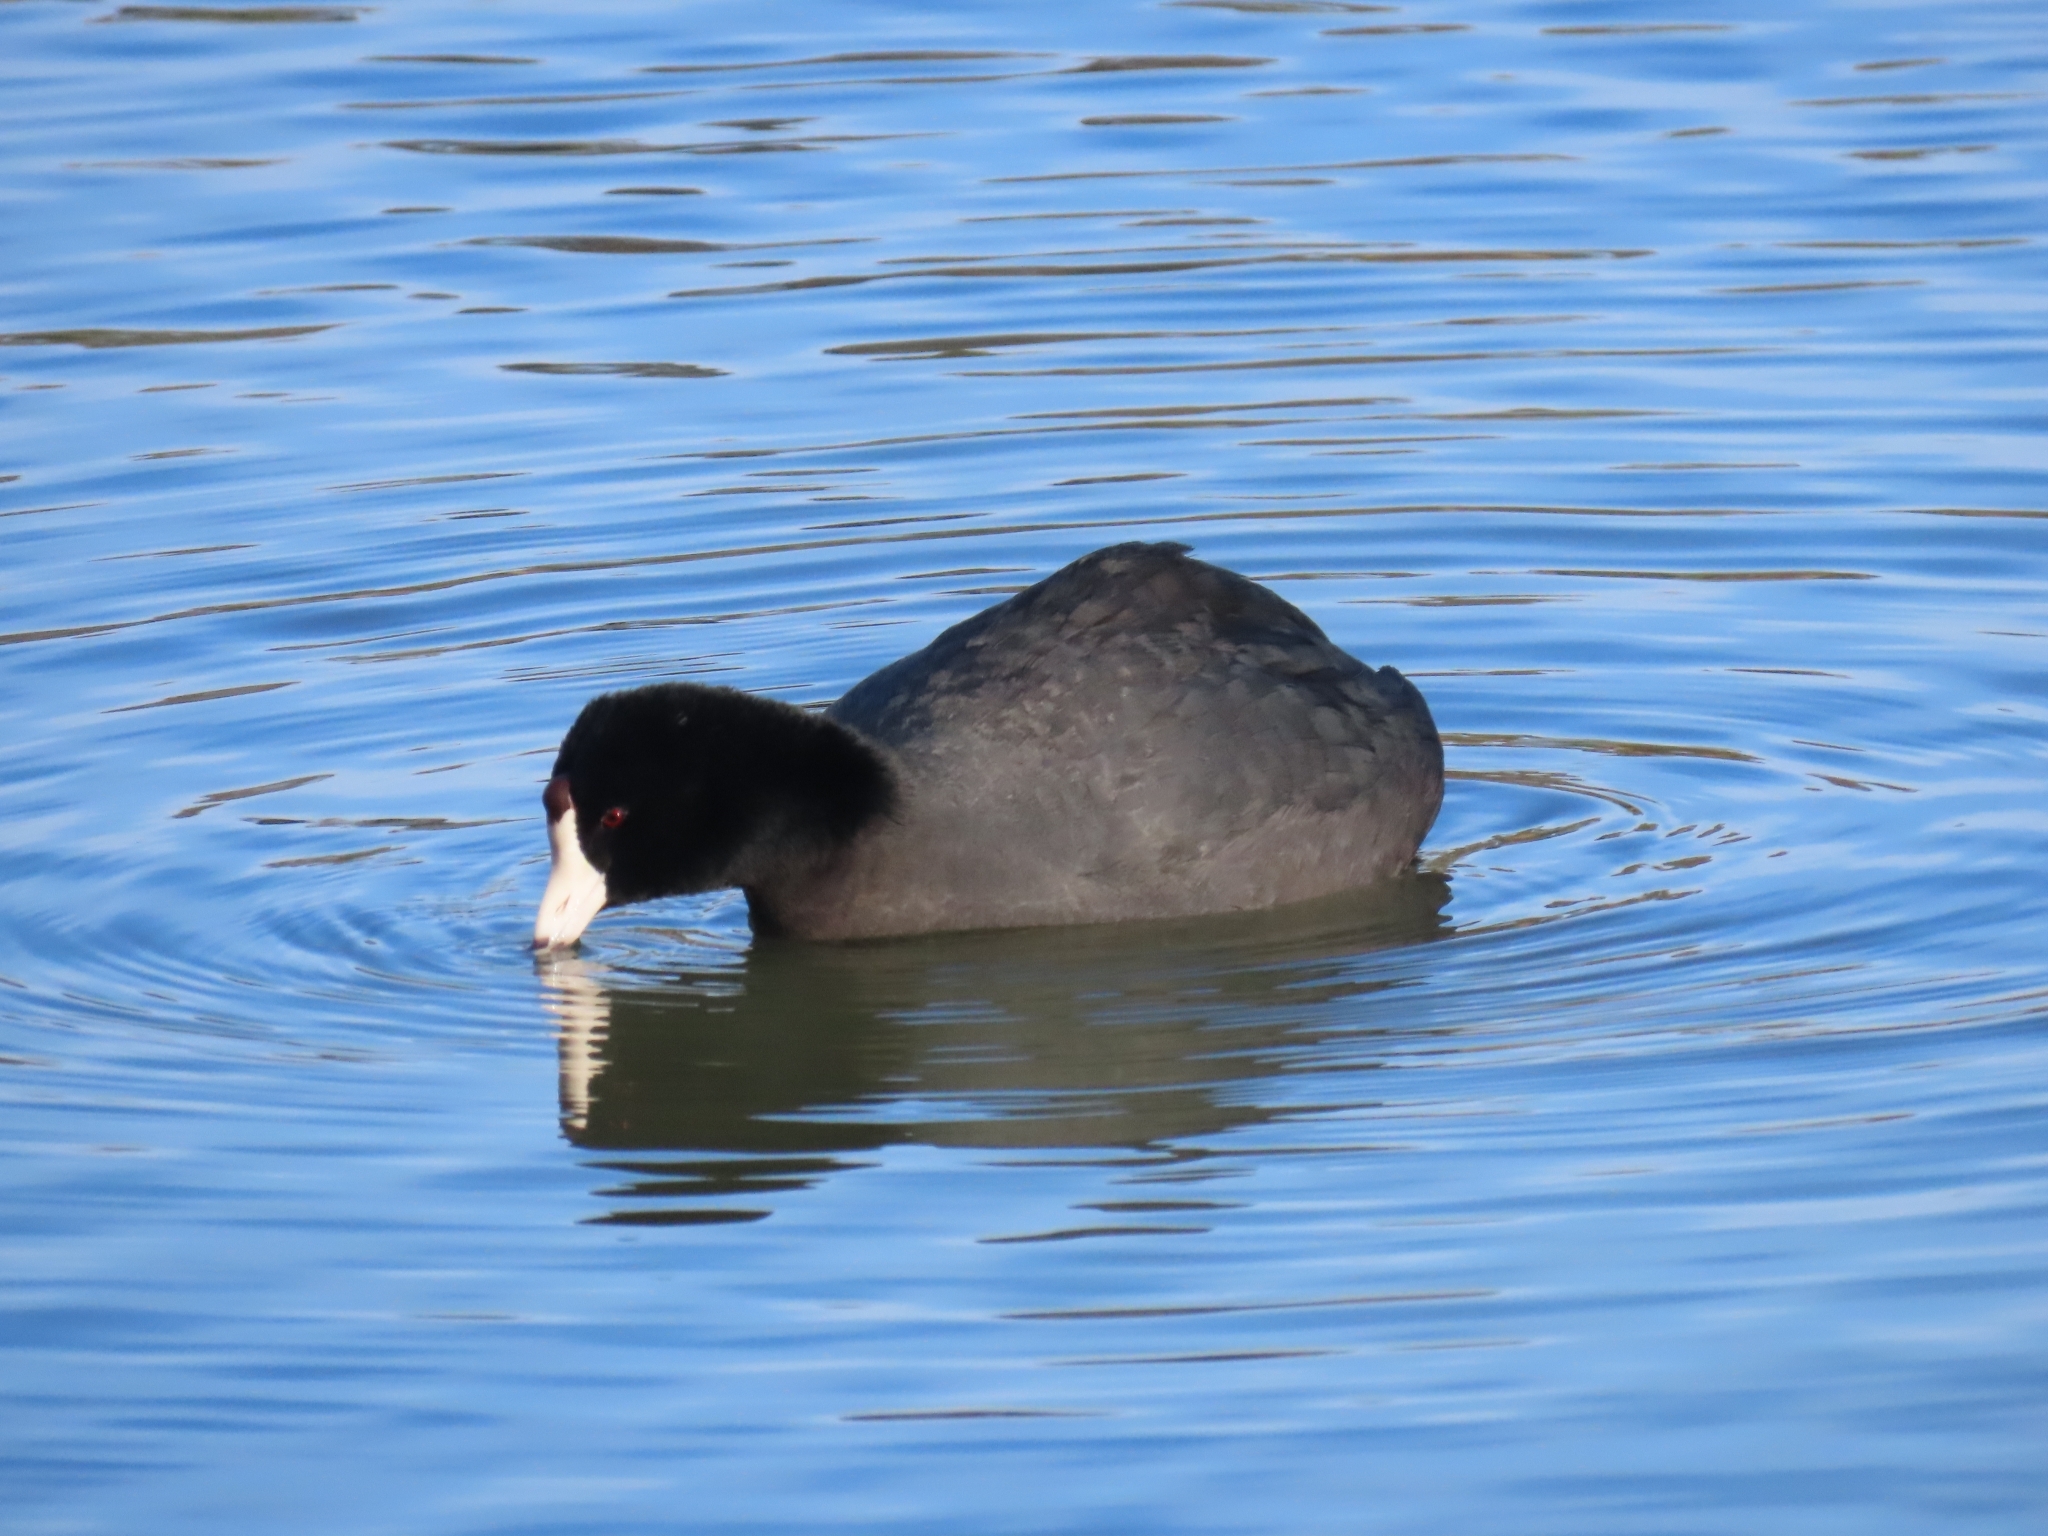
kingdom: Animalia
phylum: Chordata
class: Aves
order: Gruiformes
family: Rallidae
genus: Fulica
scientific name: Fulica americana
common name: American coot
